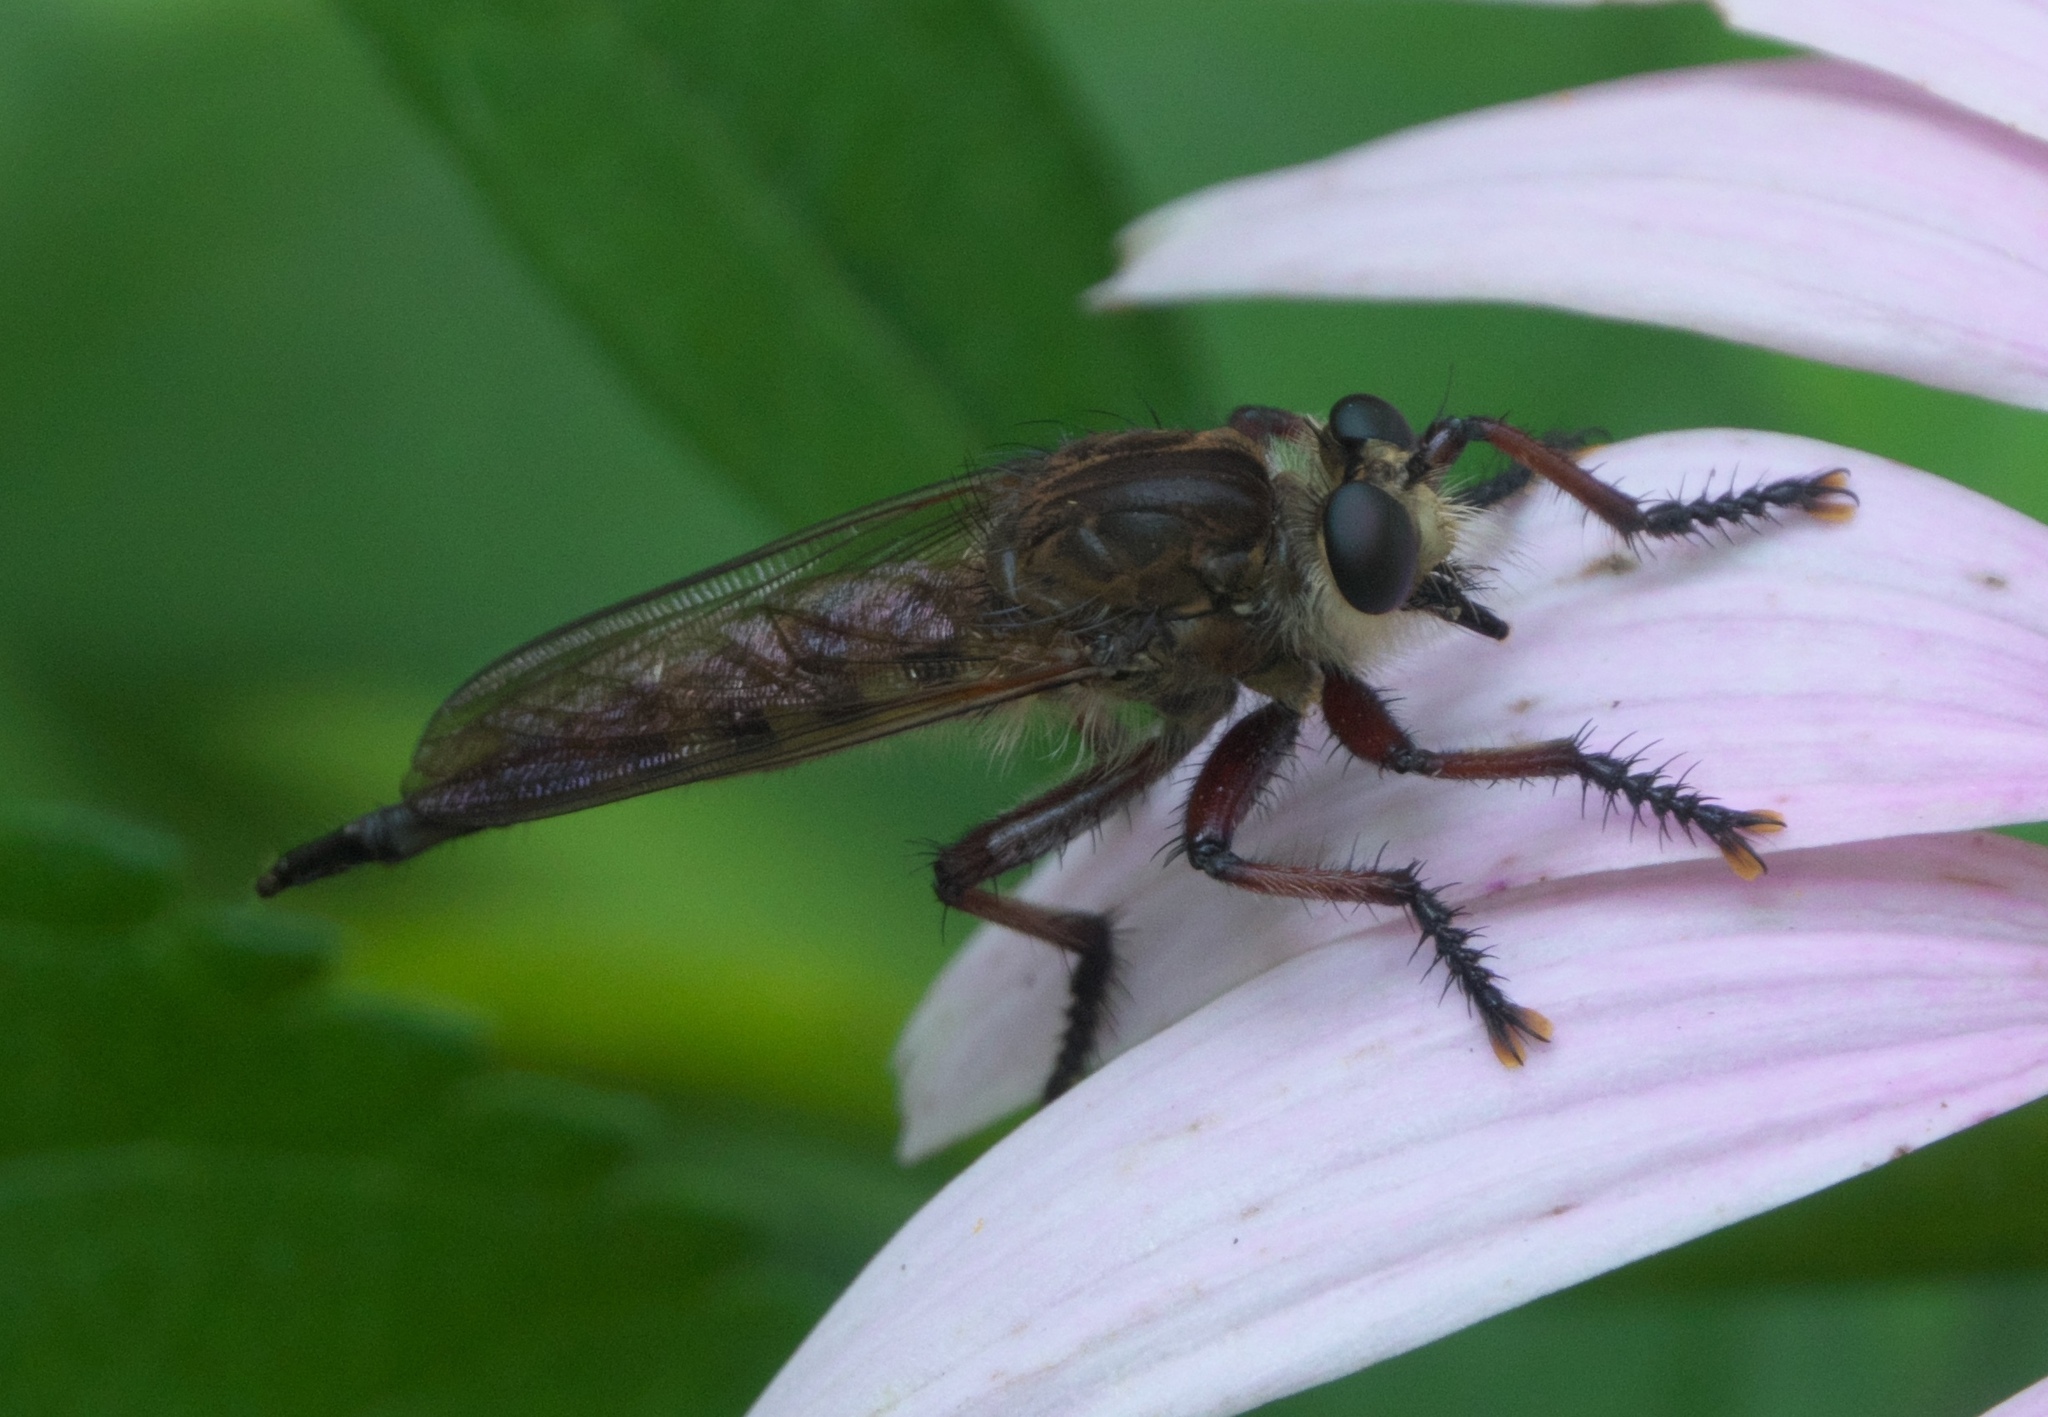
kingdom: Animalia
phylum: Arthropoda
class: Insecta
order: Diptera
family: Asilidae
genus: Promachus
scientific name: Promachus hinei
